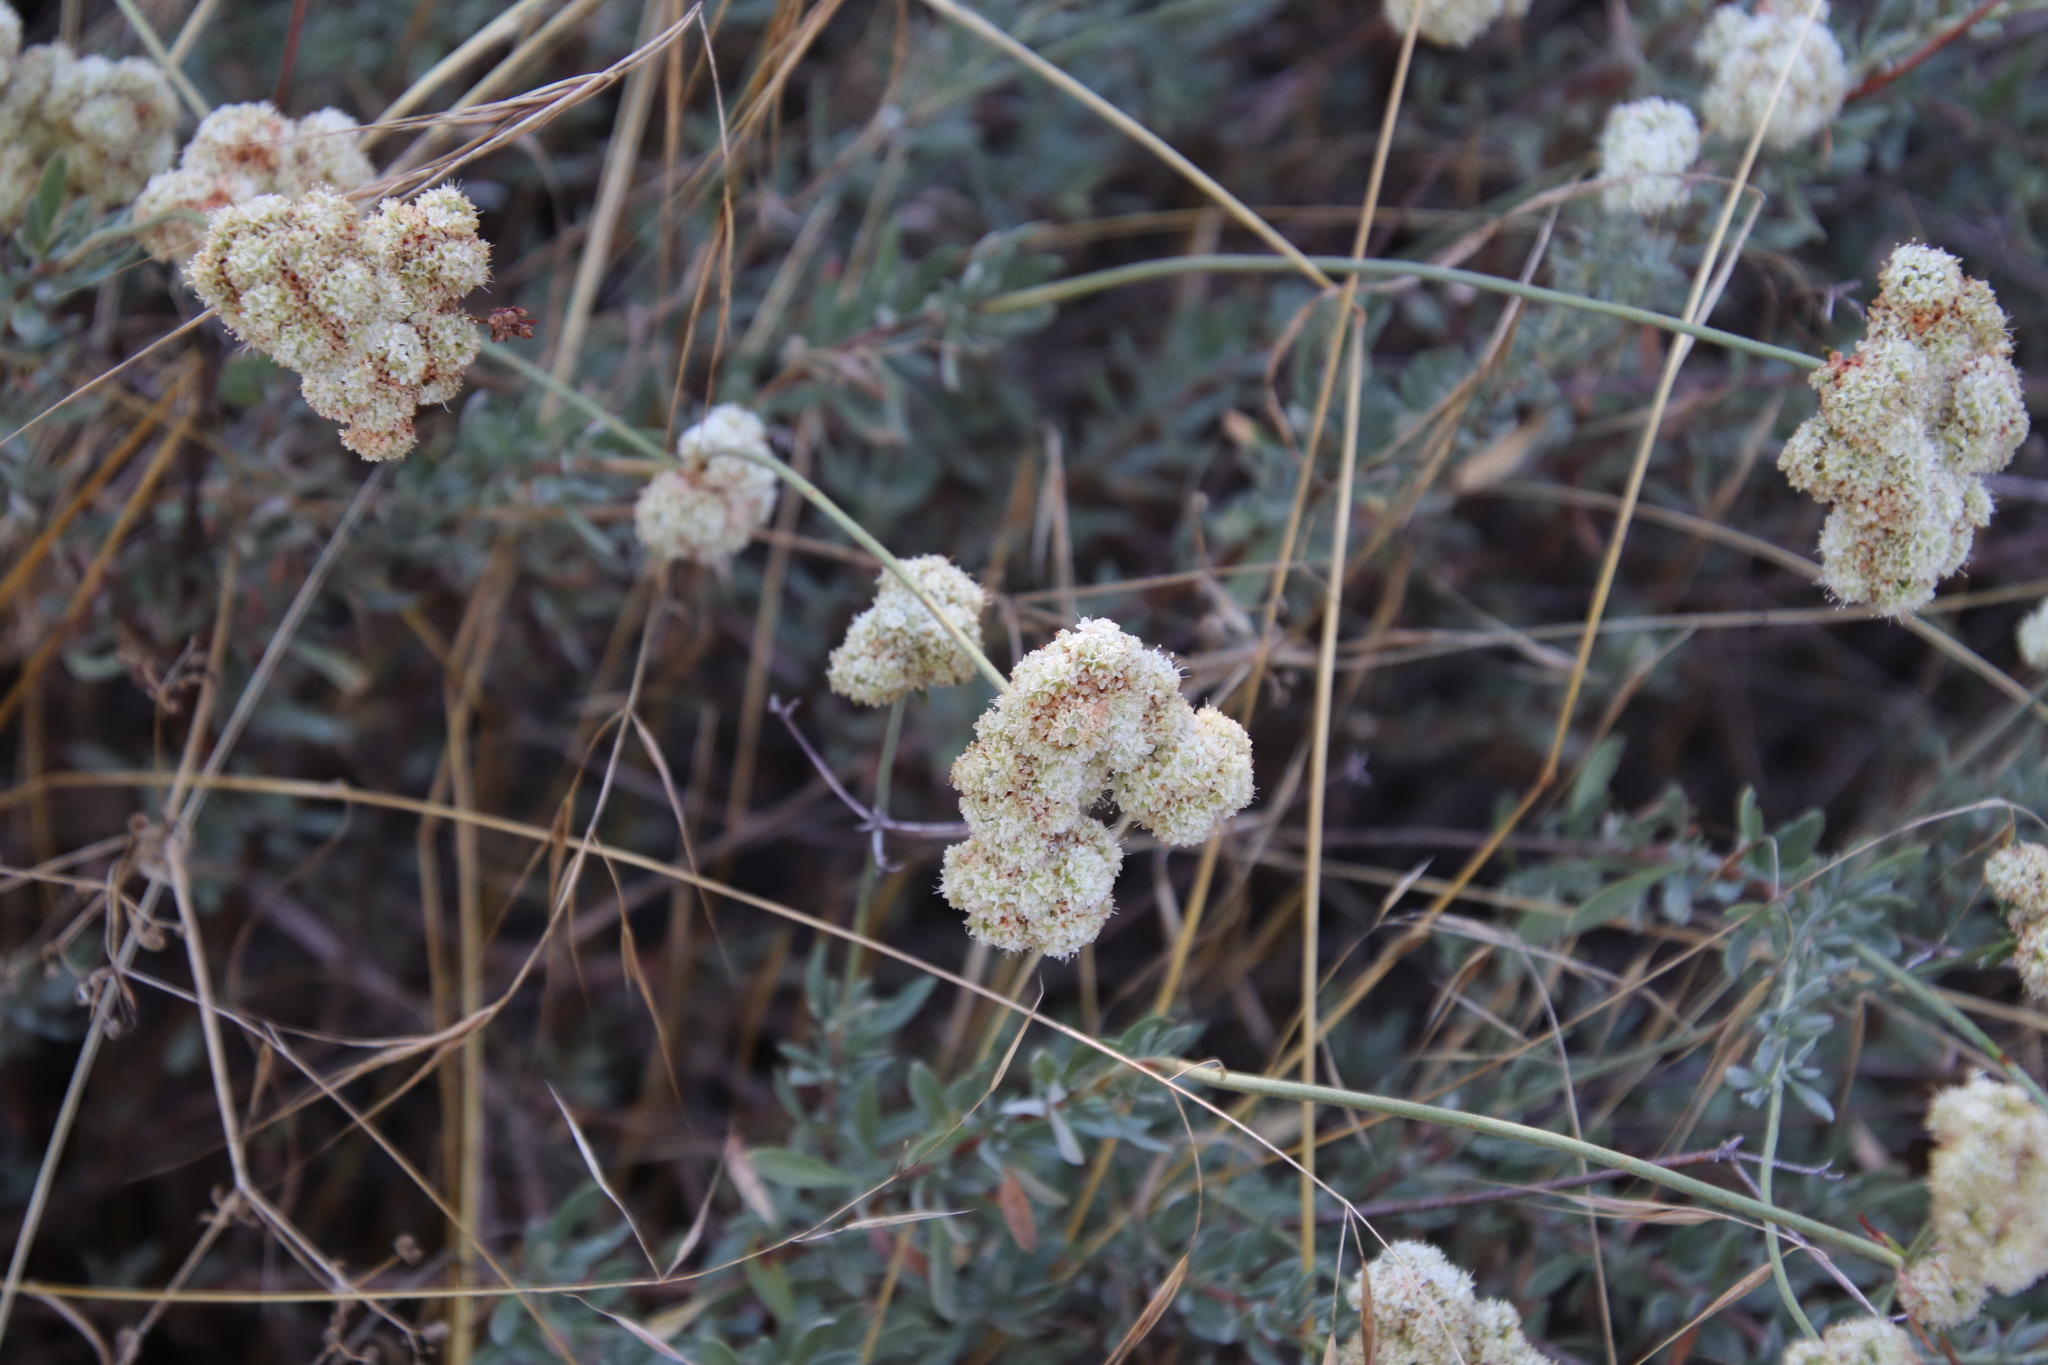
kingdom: Plantae
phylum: Tracheophyta
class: Magnoliopsida
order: Caryophyllales
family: Polygonaceae
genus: Eriogonum
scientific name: Eriogonum fasciculatum
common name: California wild buckwheat
